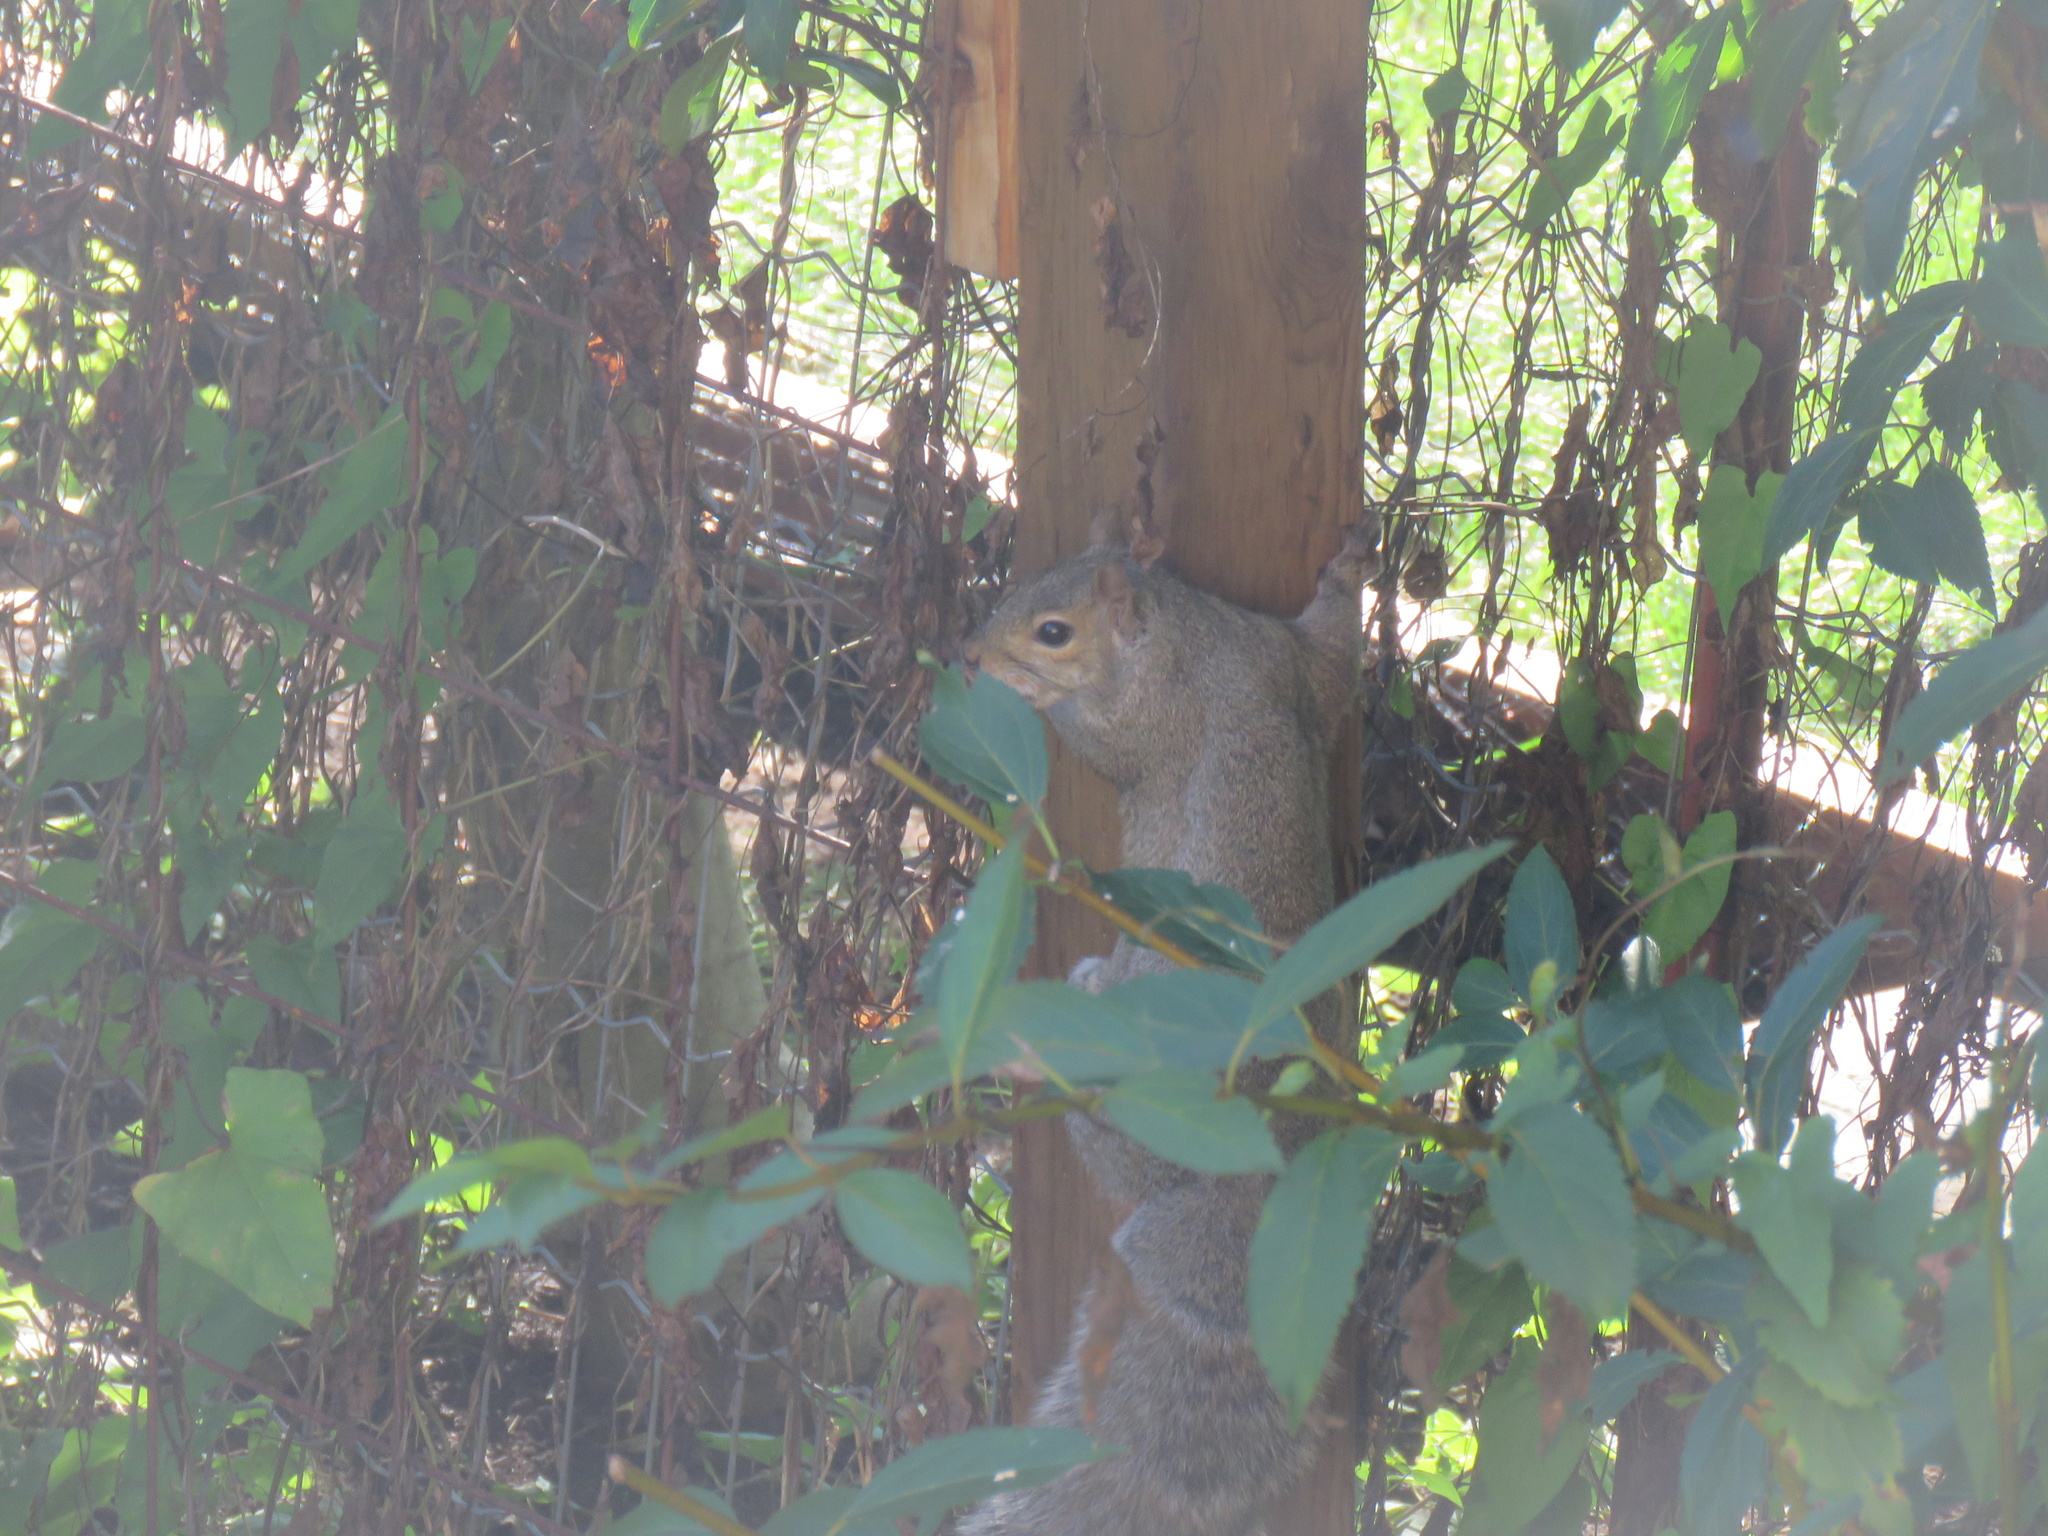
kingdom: Animalia
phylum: Chordata
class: Mammalia
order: Rodentia
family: Sciuridae
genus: Sciurus
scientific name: Sciurus carolinensis
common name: Eastern gray squirrel
